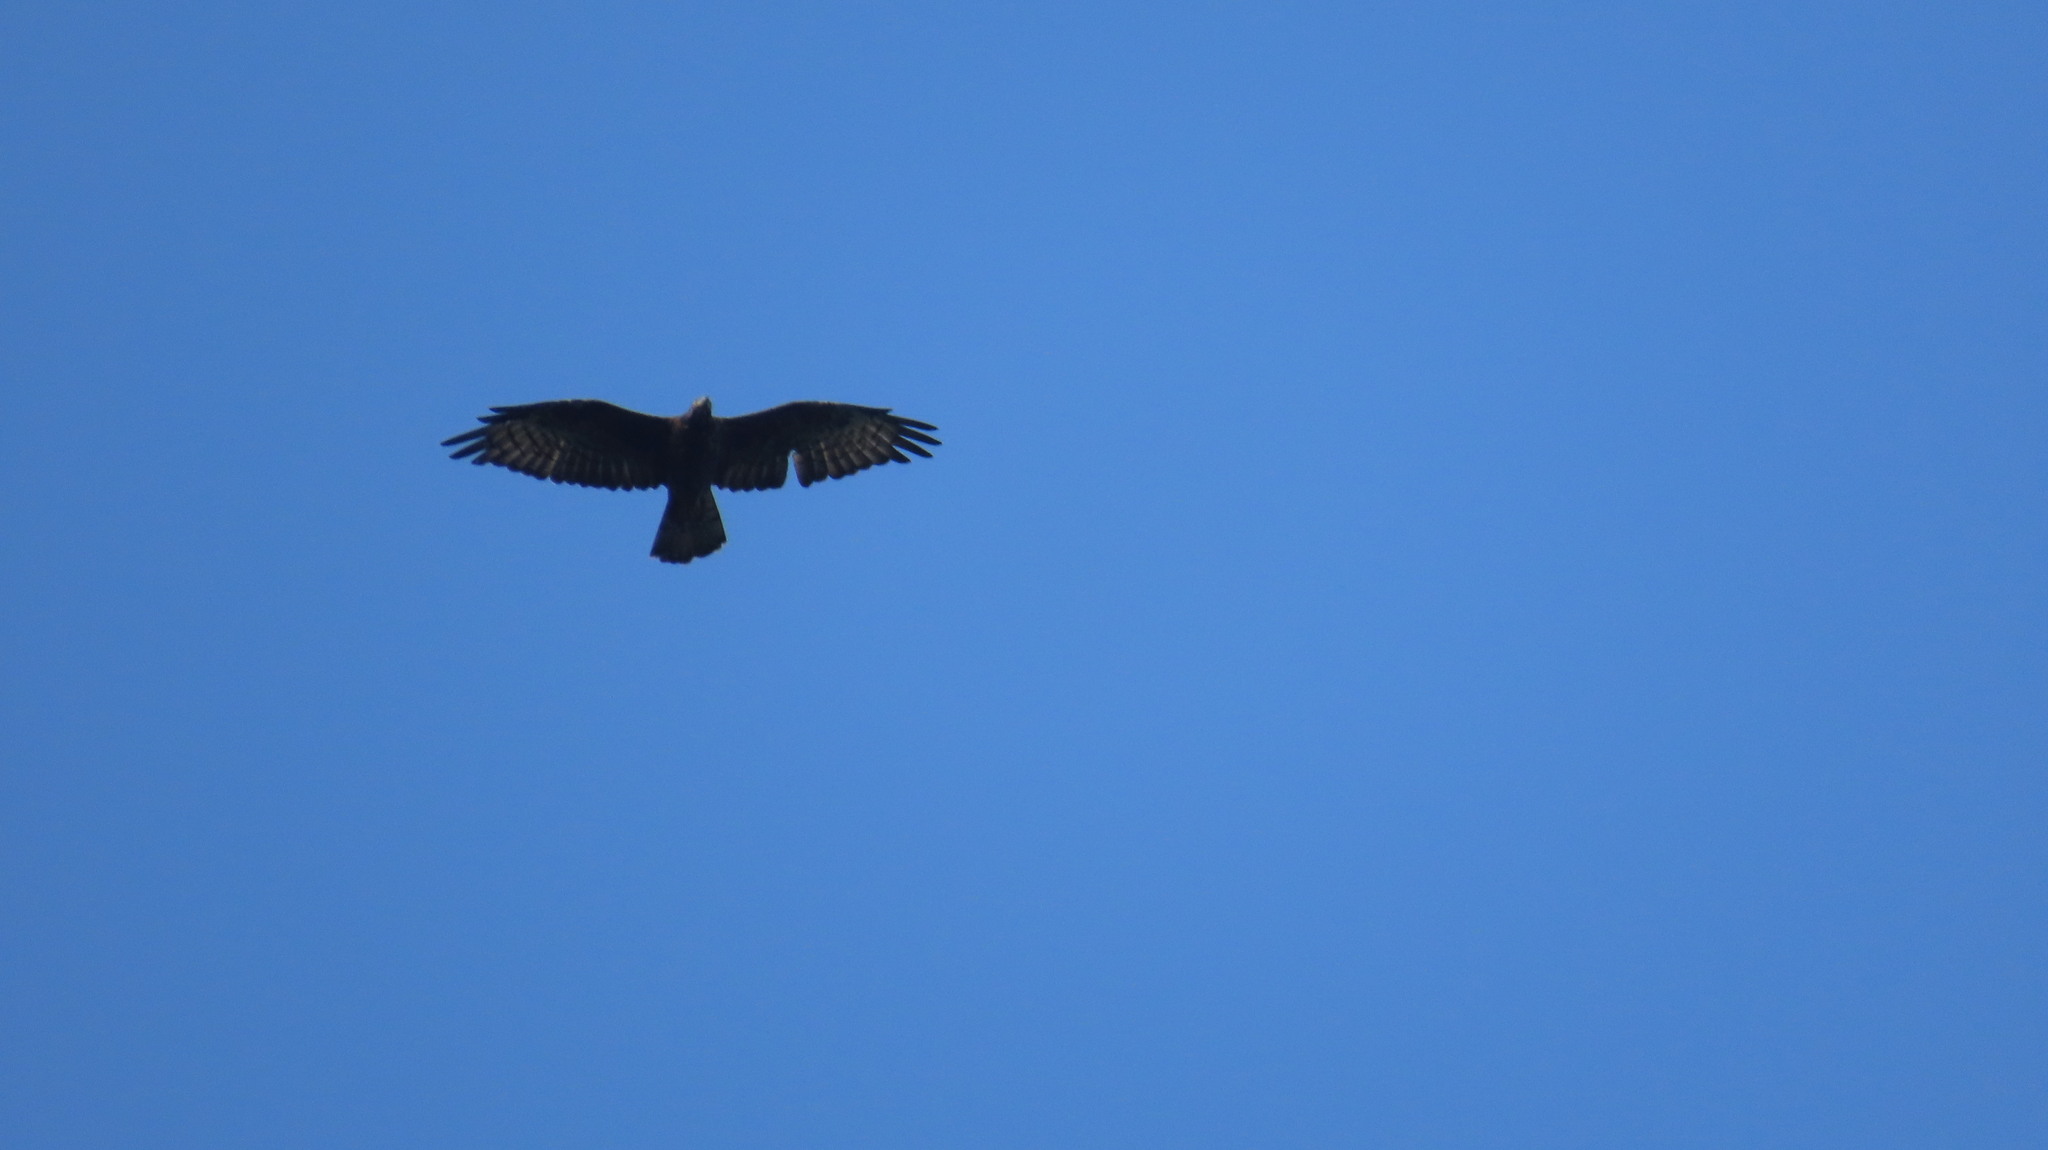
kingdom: Animalia
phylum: Chordata
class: Aves
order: Accipitriformes
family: Accipitridae
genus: Pernis
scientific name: Pernis ptilorhynchus
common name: Crested honey buzzard
